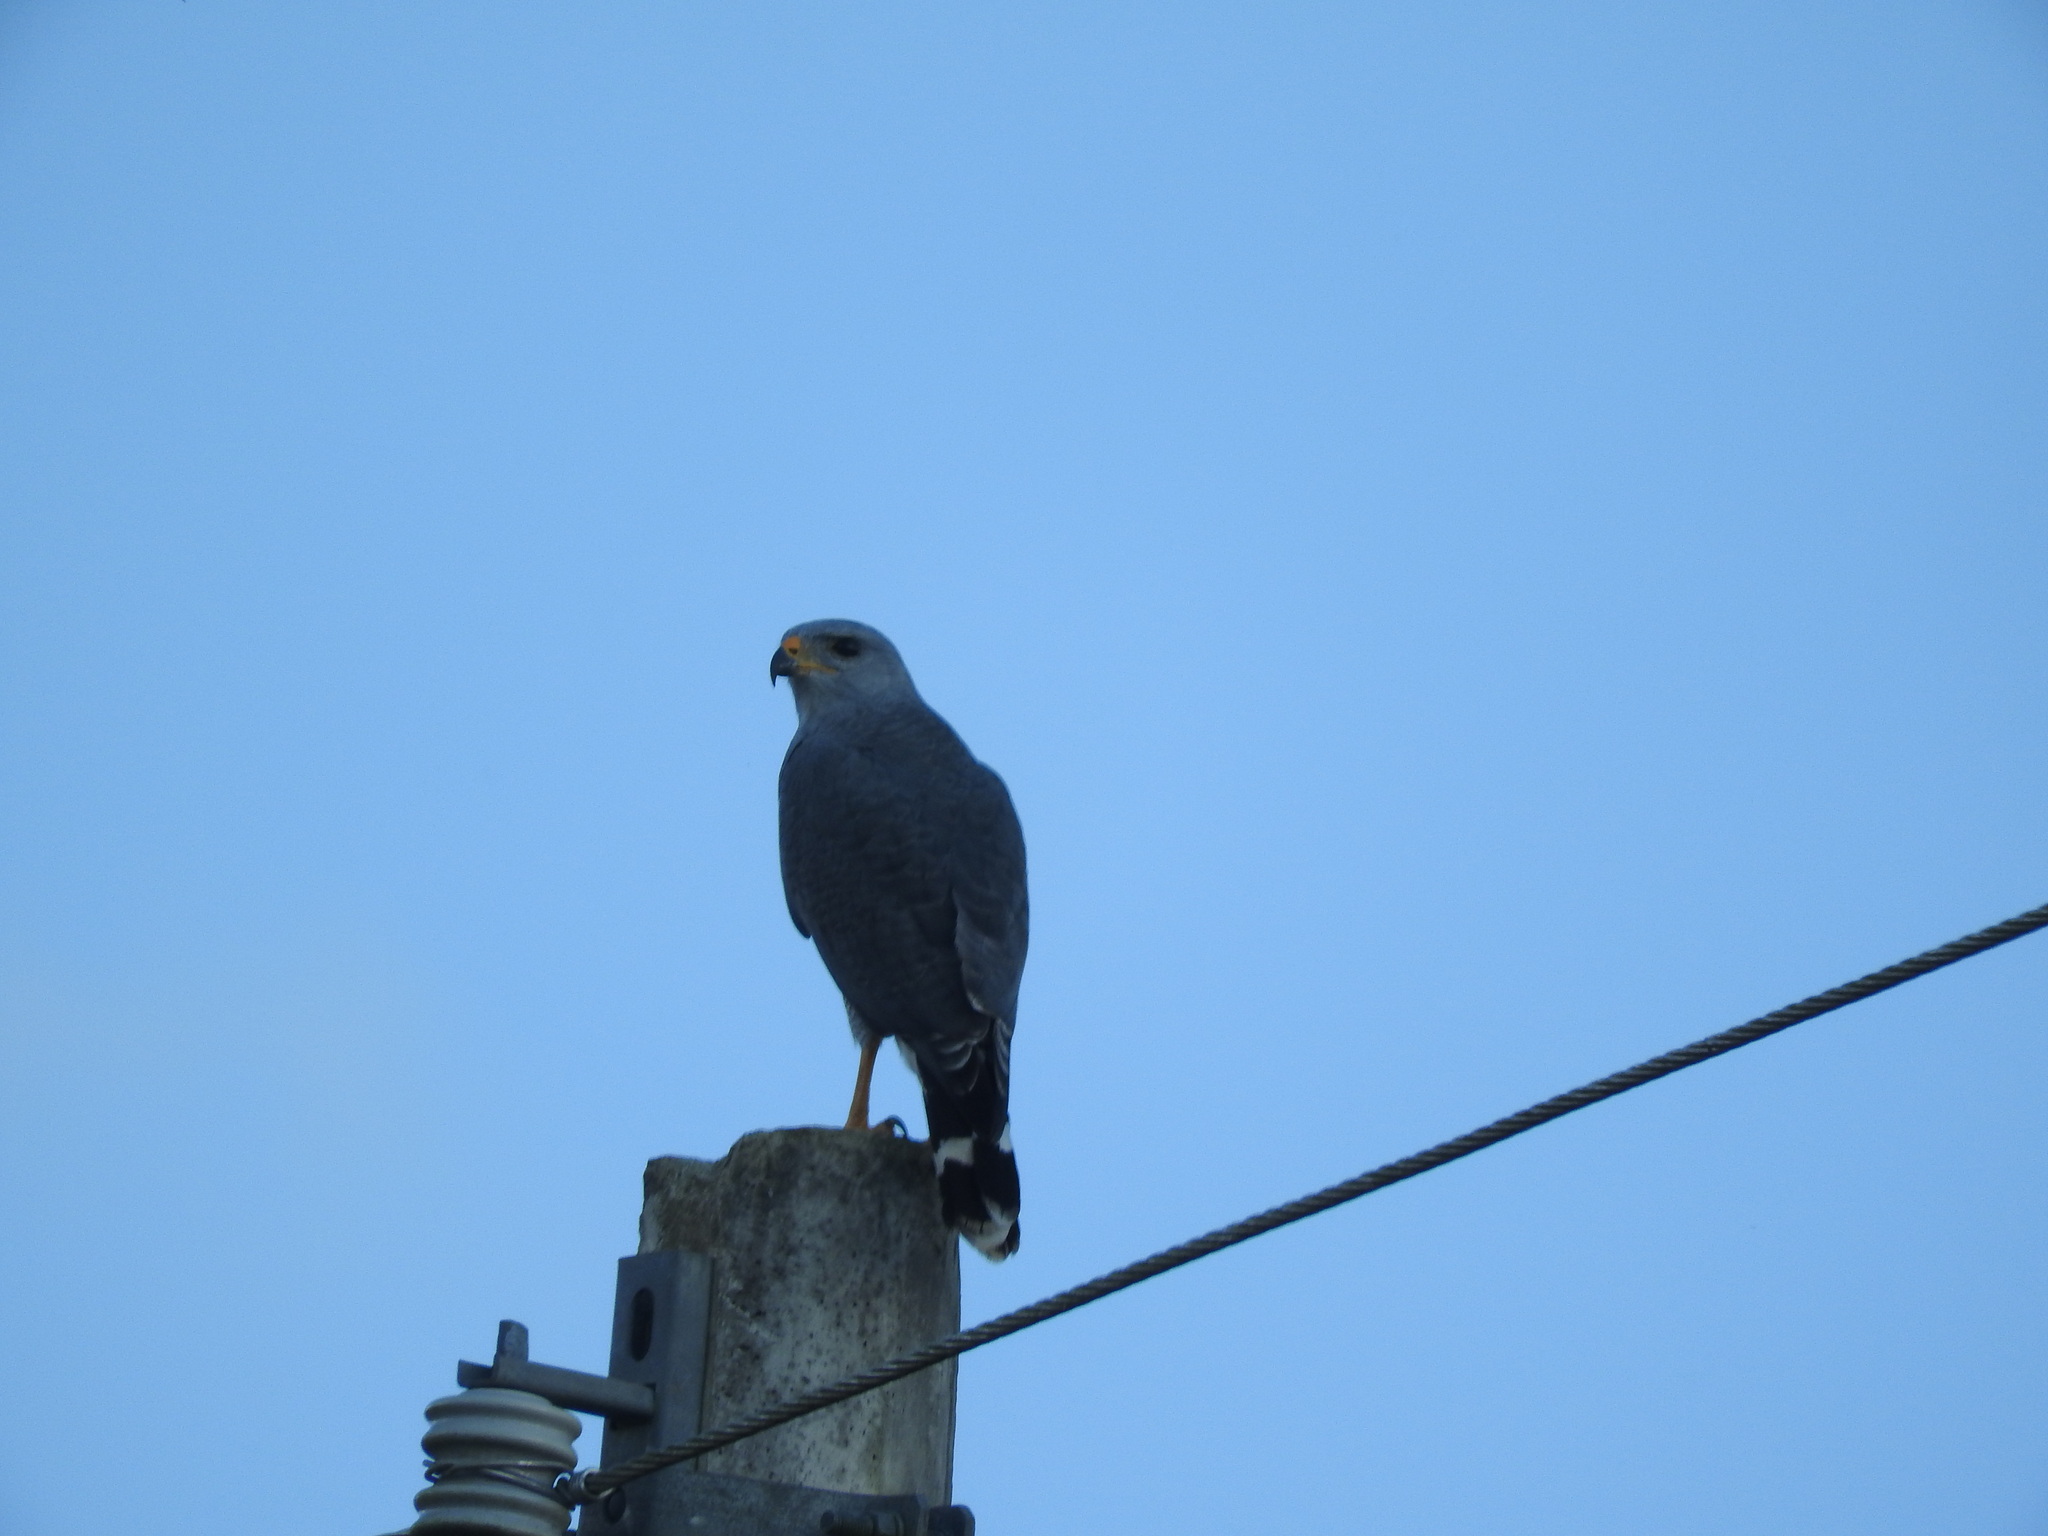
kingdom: Animalia
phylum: Chordata
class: Aves
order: Accipitriformes
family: Accipitridae
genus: Buteo
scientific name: Buteo nitidus
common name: Grey-lined hawk
